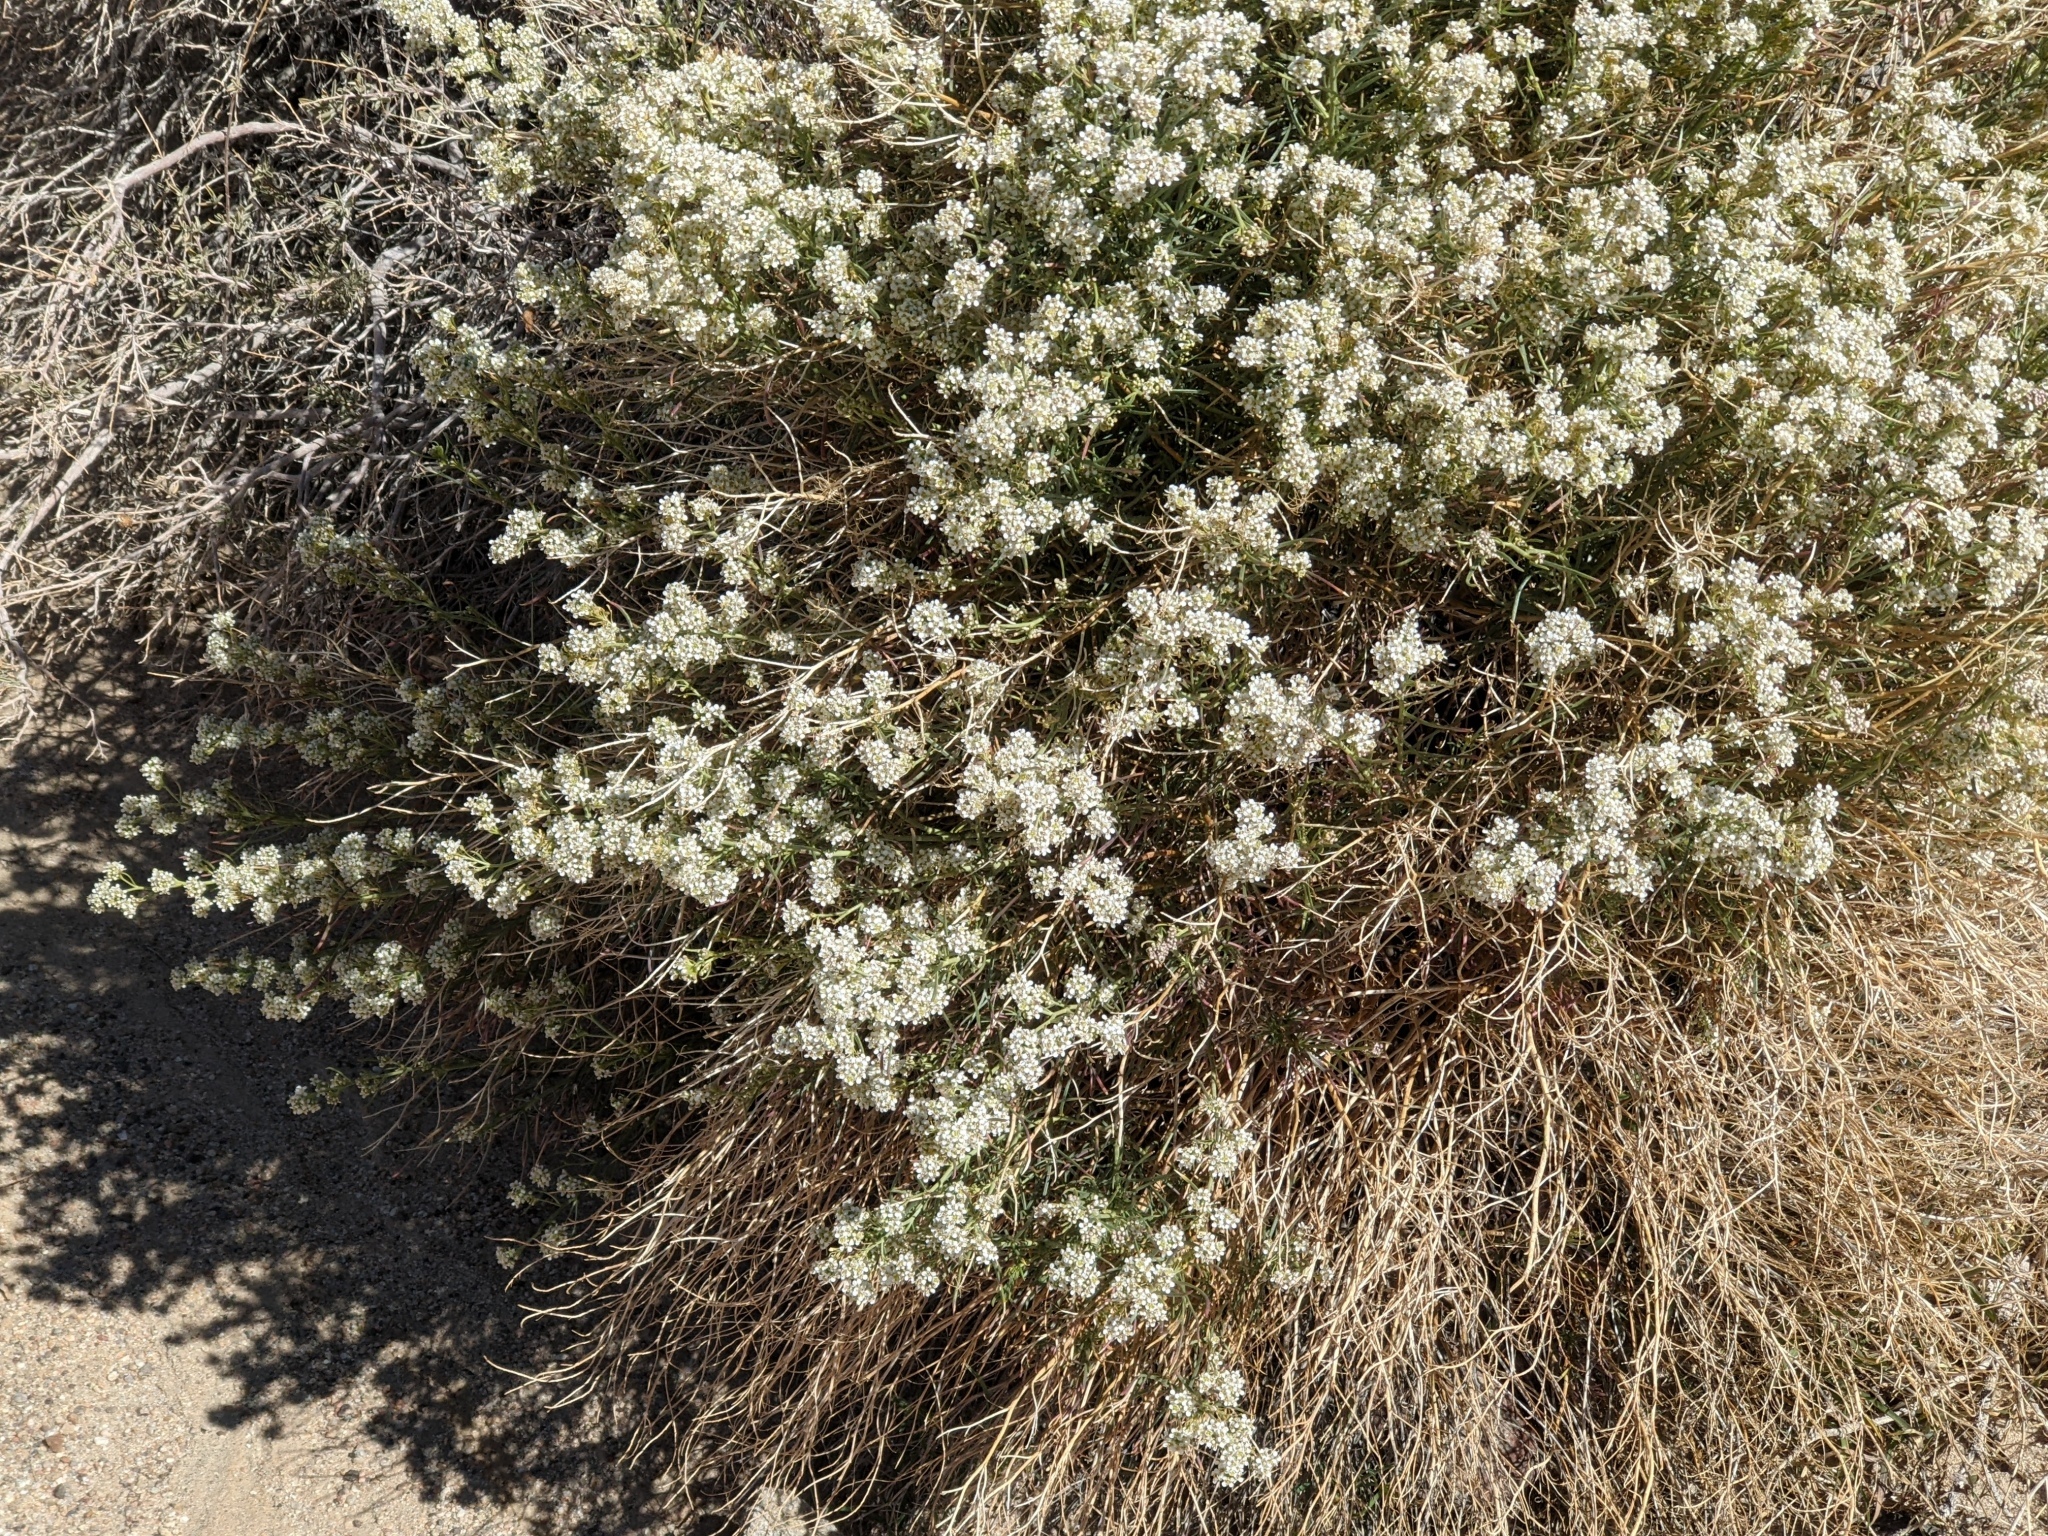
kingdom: Plantae
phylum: Tracheophyta
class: Magnoliopsida
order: Brassicales
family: Brassicaceae
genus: Lepidium
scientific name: Lepidium fremontii
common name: Fremont's pepperwort
